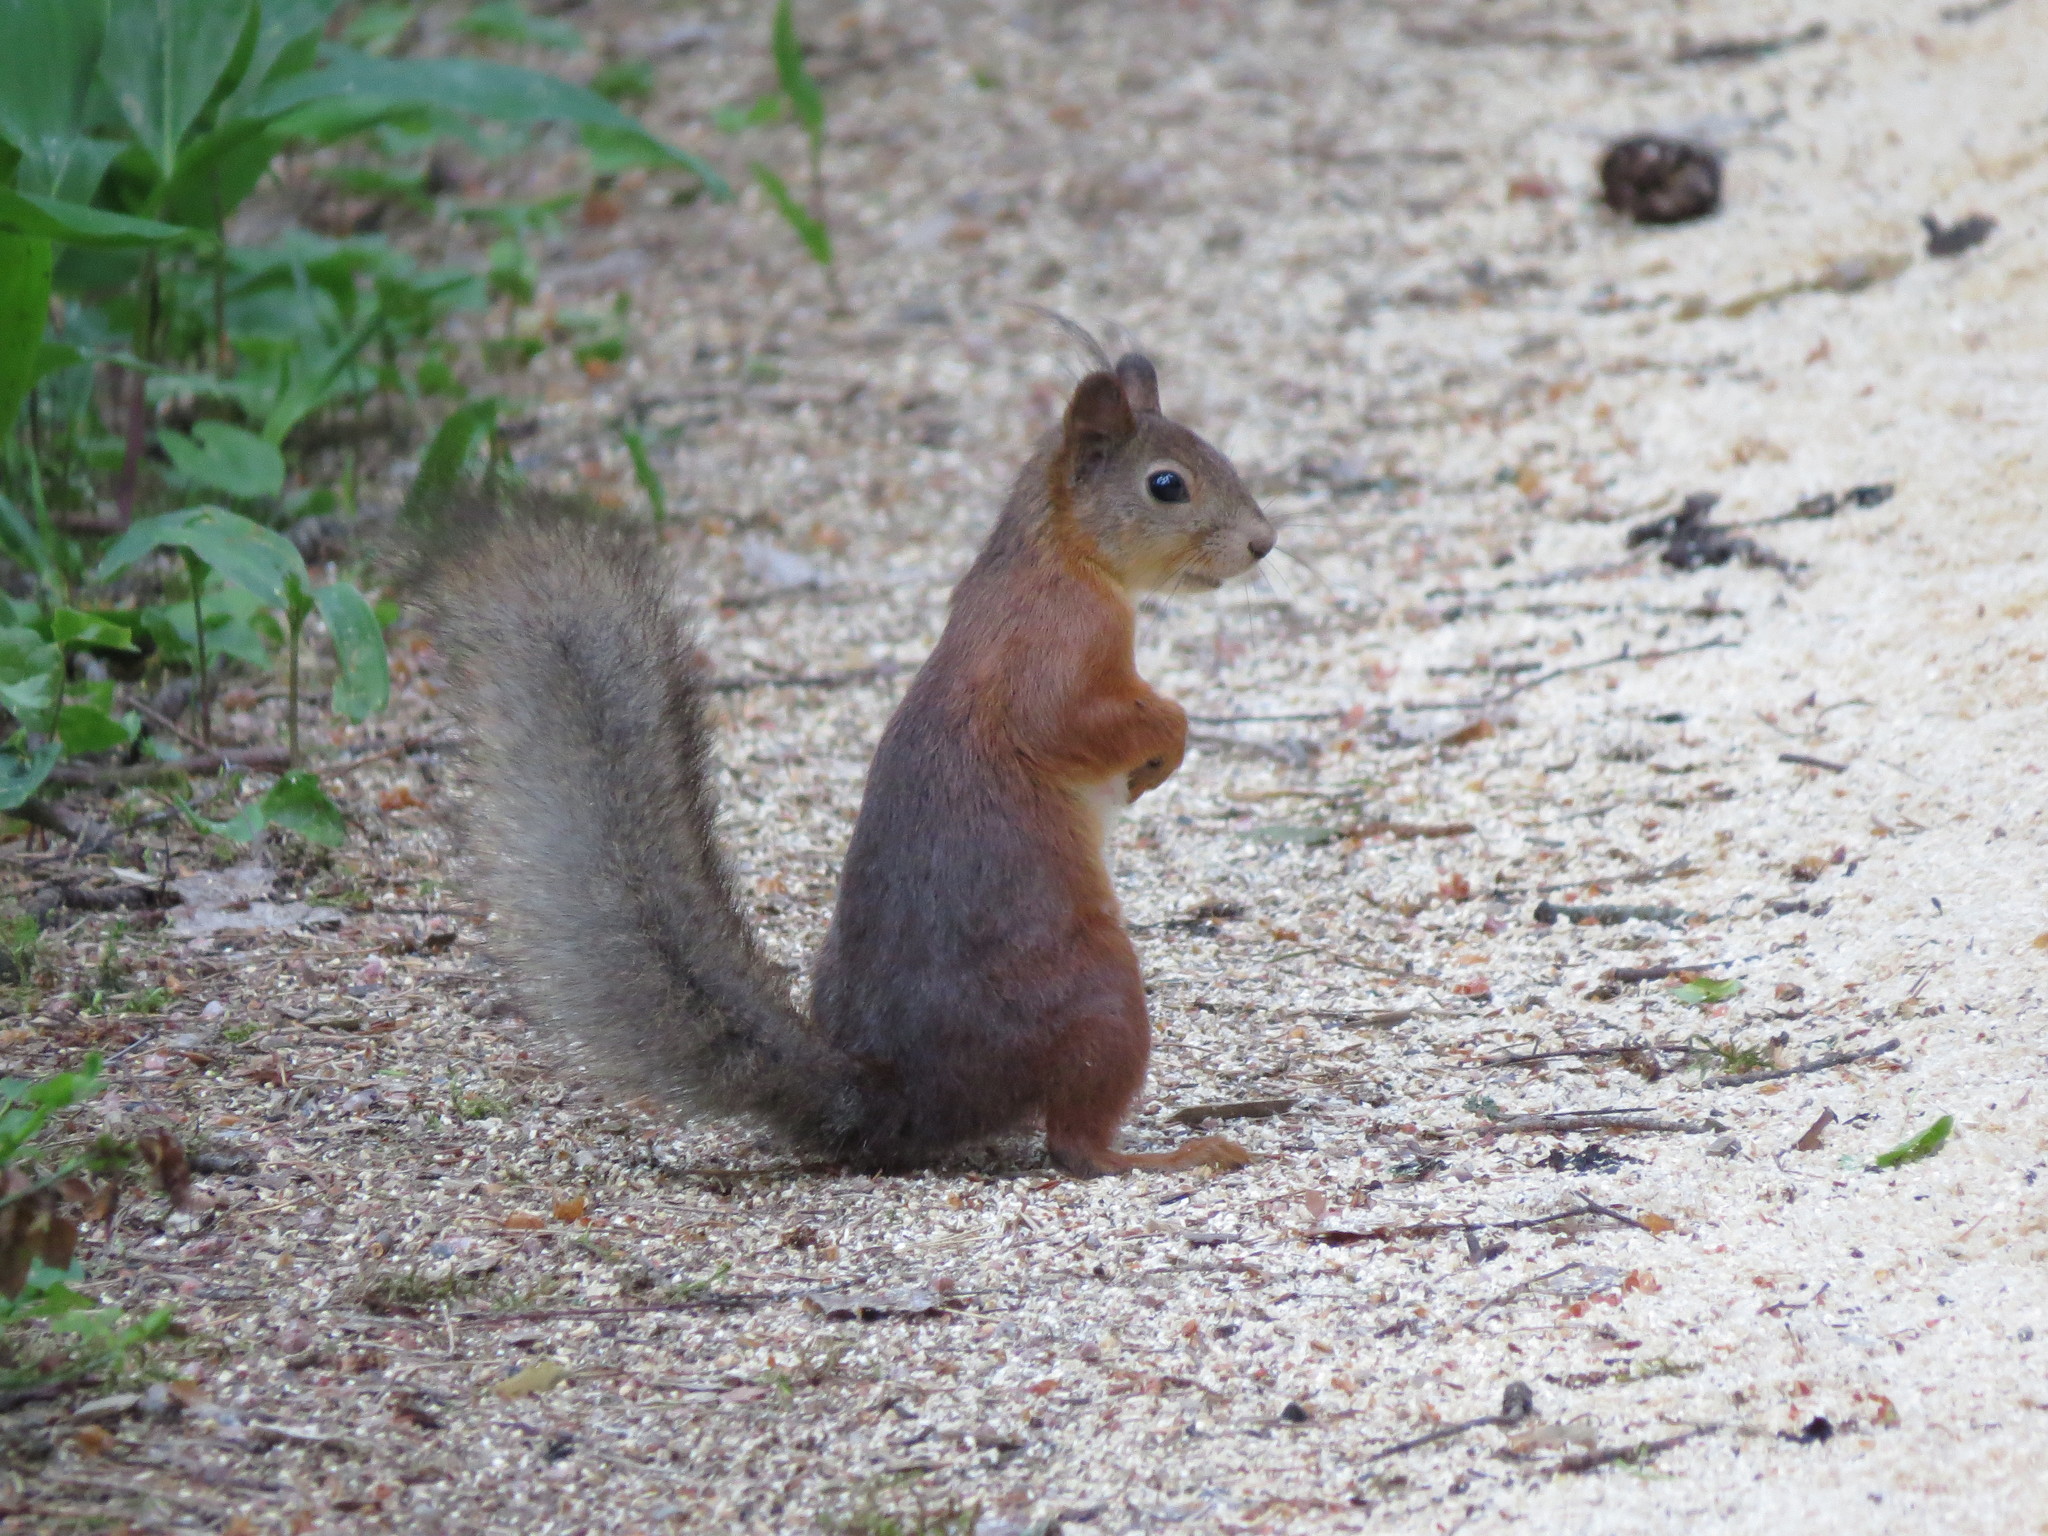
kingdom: Animalia
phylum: Chordata
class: Mammalia
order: Rodentia
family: Sciuridae
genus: Sciurus
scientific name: Sciurus vulgaris
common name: Eurasian red squirrel
